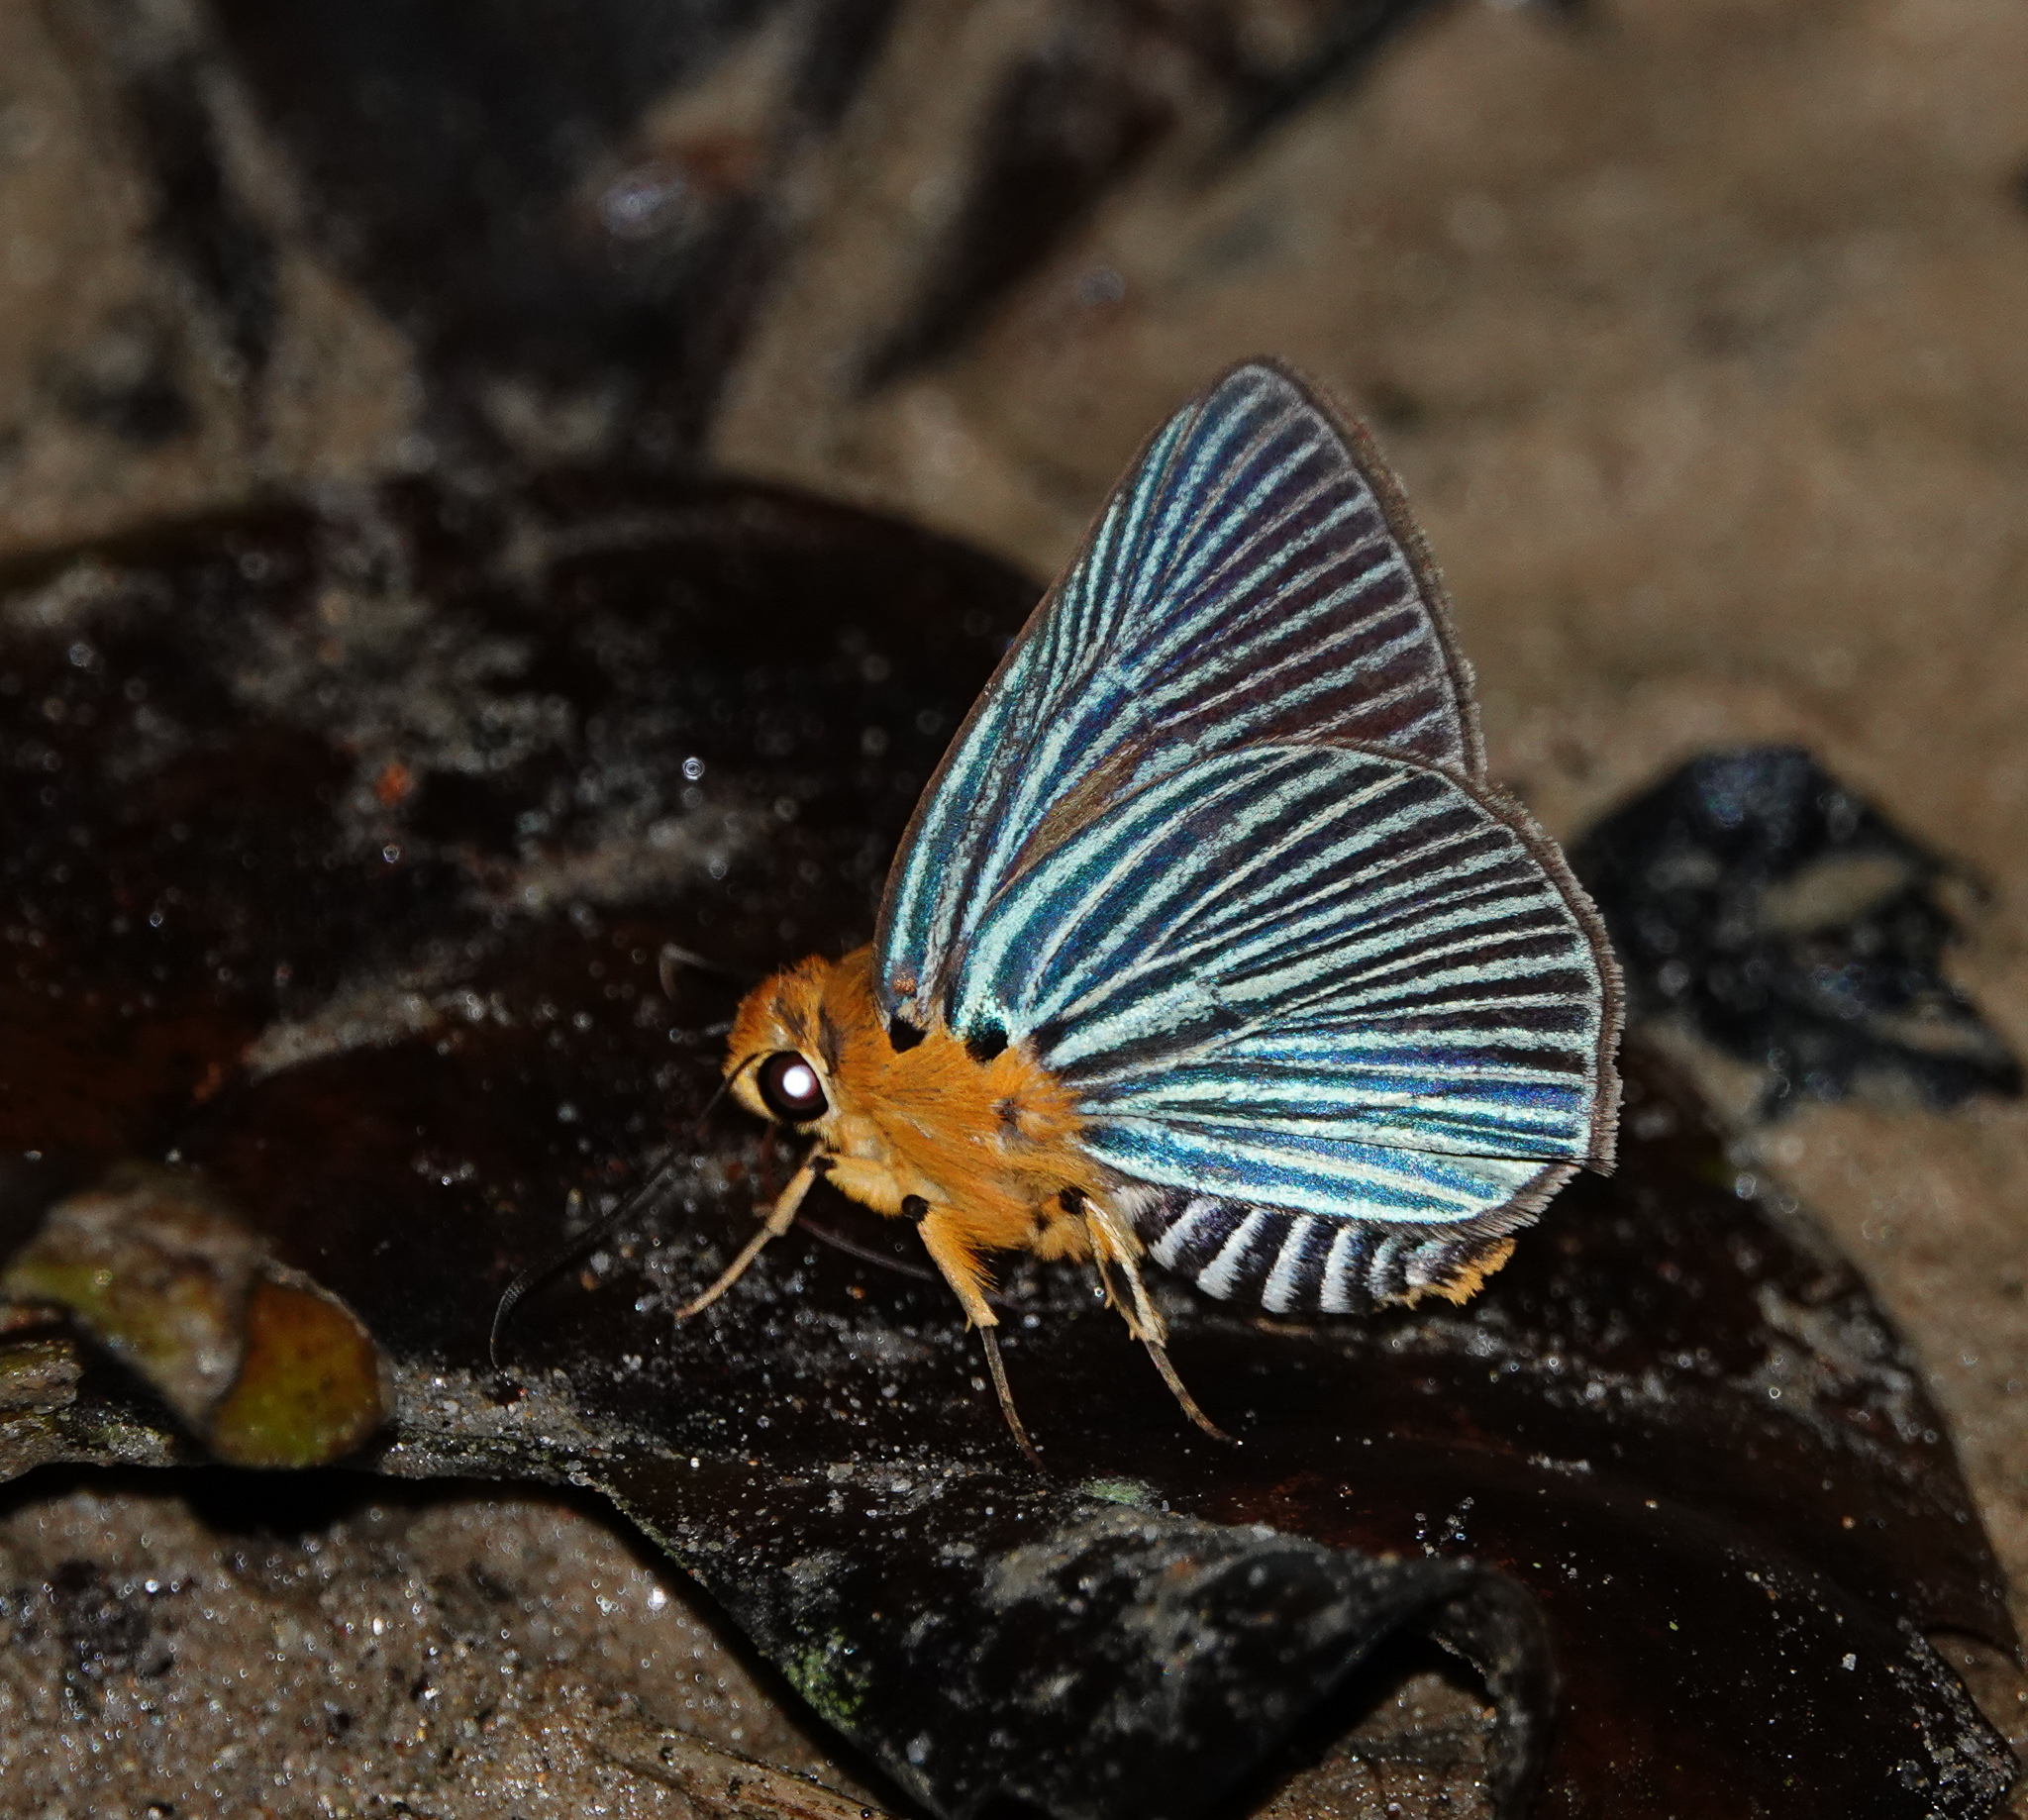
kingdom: Animalia
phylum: Arthropoda
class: Insecta
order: Lepidoptera
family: Hesperiidae
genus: Bibasis
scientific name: Bibasis amara
